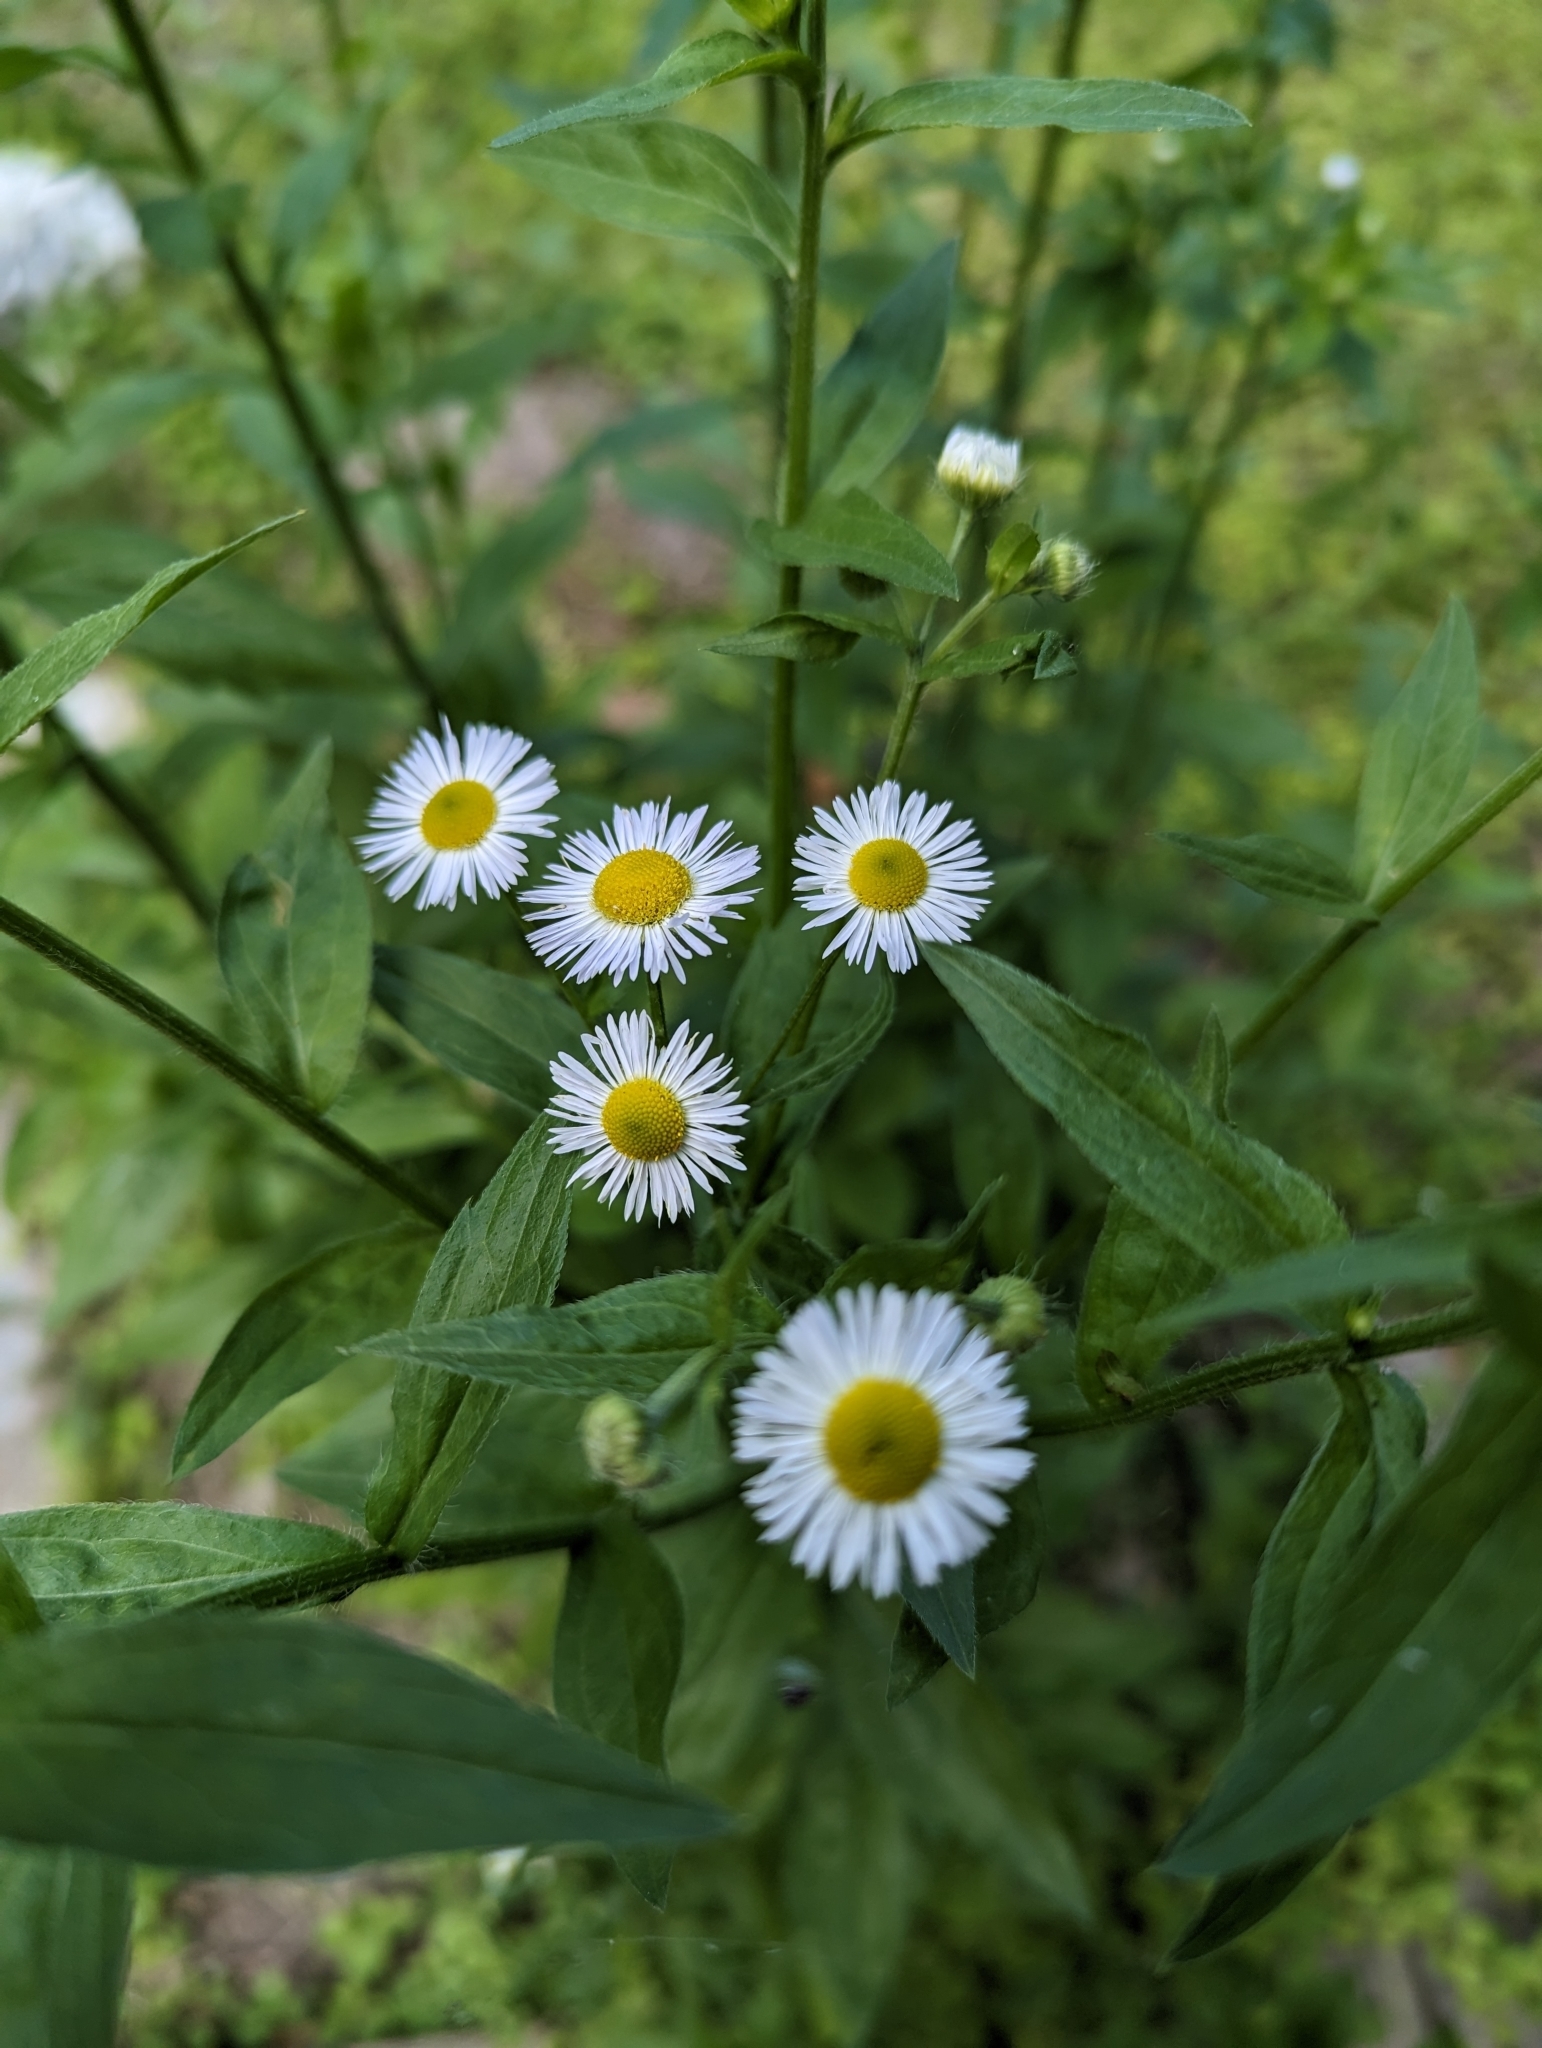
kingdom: Plantae
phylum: Tracheophyta
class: Magnoliopsida
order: Asterales
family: Asteraceae
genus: Erigeron
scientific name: Erigeron annuus
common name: Tall fleabane
